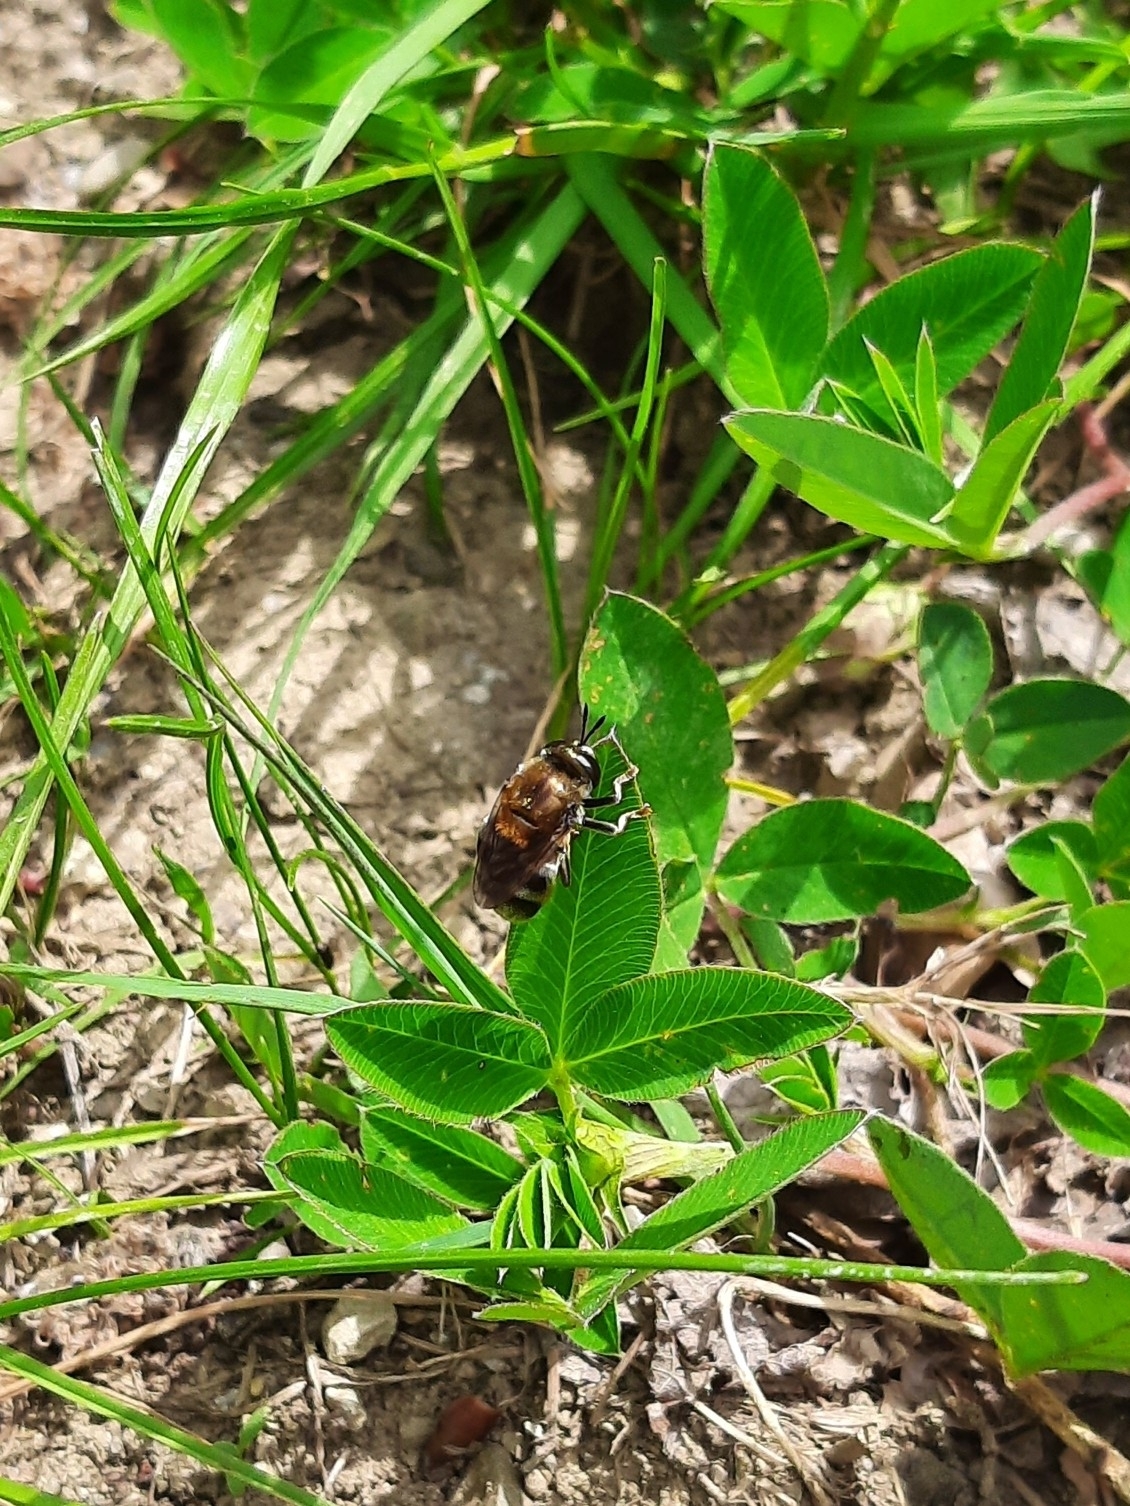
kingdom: Animalia
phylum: Arthropoda
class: Insecta
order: Diptera
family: Syrphidae
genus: Microdon
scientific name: Microdon
